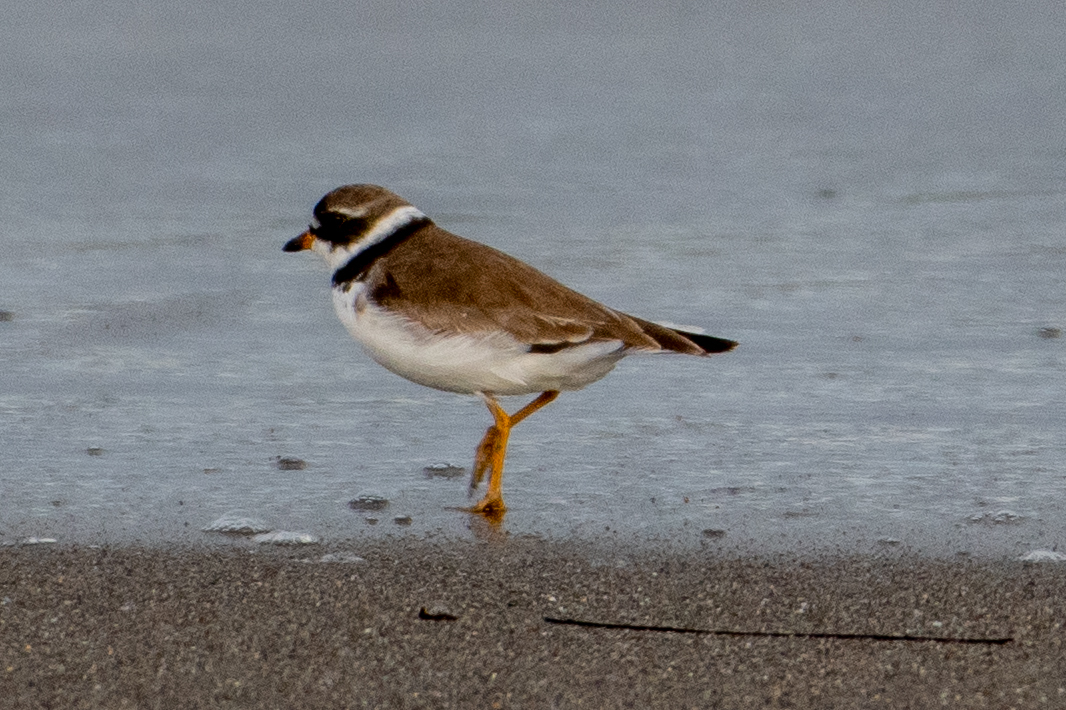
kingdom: Animalia
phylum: Chordata
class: Aves
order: Charadriiformes
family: Charadriidae
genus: Charadrius
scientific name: Charadrius semipalmatus
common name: Semipalmated plover
